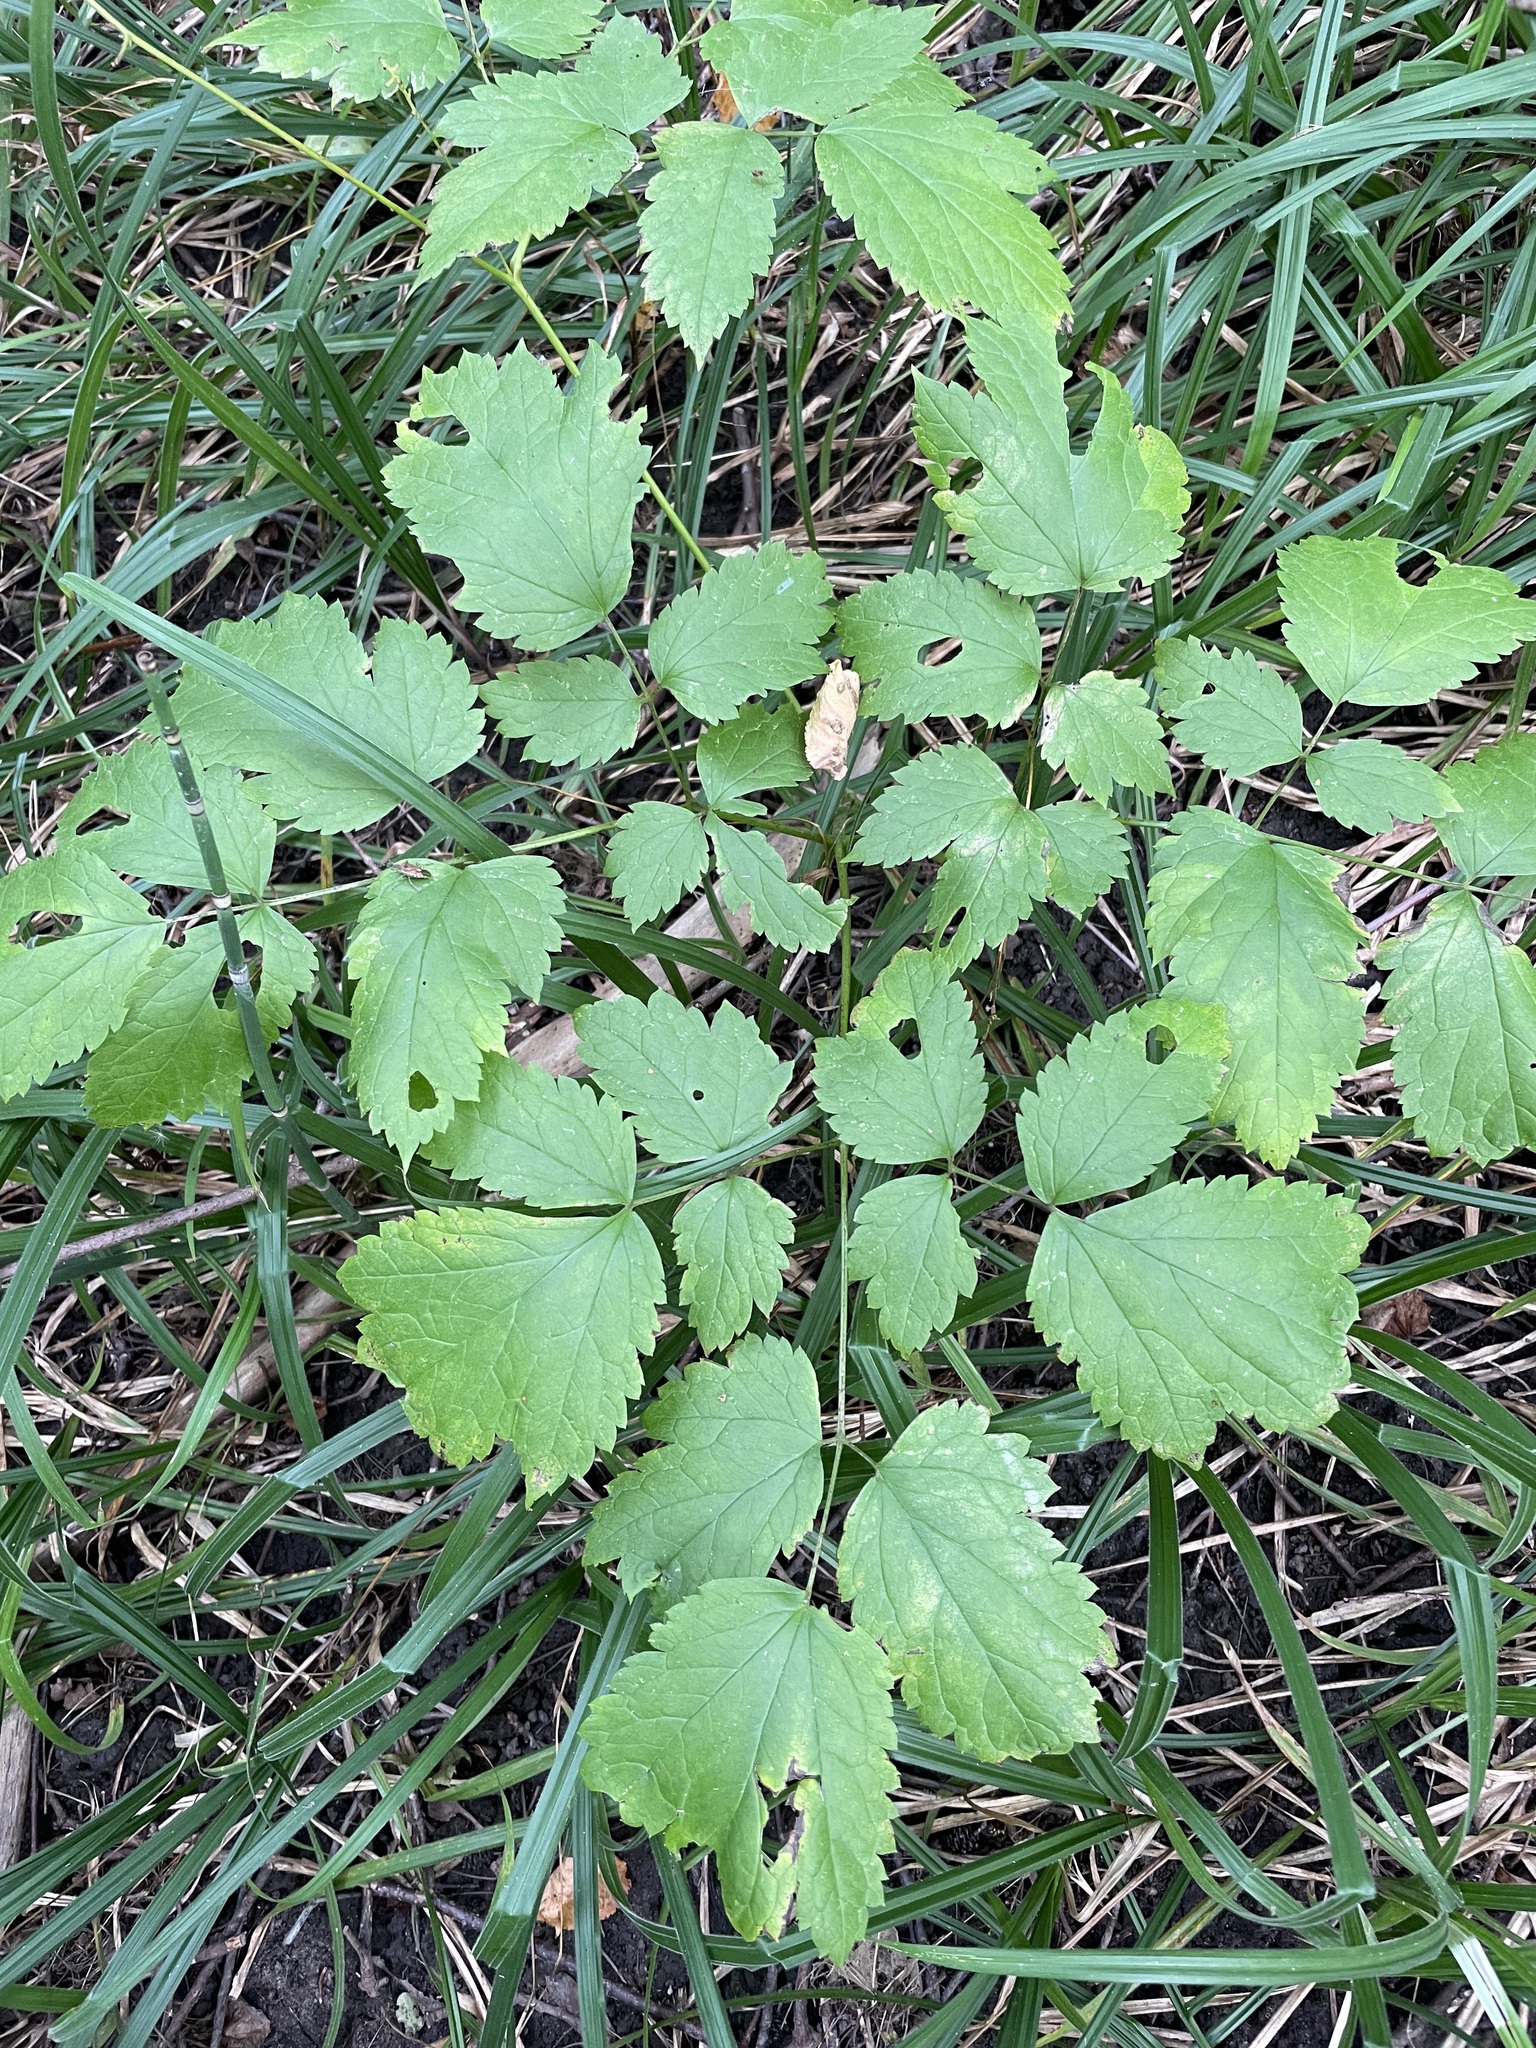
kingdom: Plantae
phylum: Tracheophyta
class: Magnoliopsida
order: Ranunculales
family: Ranunculaceae
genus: Actaea
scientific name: Actaea spicata
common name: Baneberry
